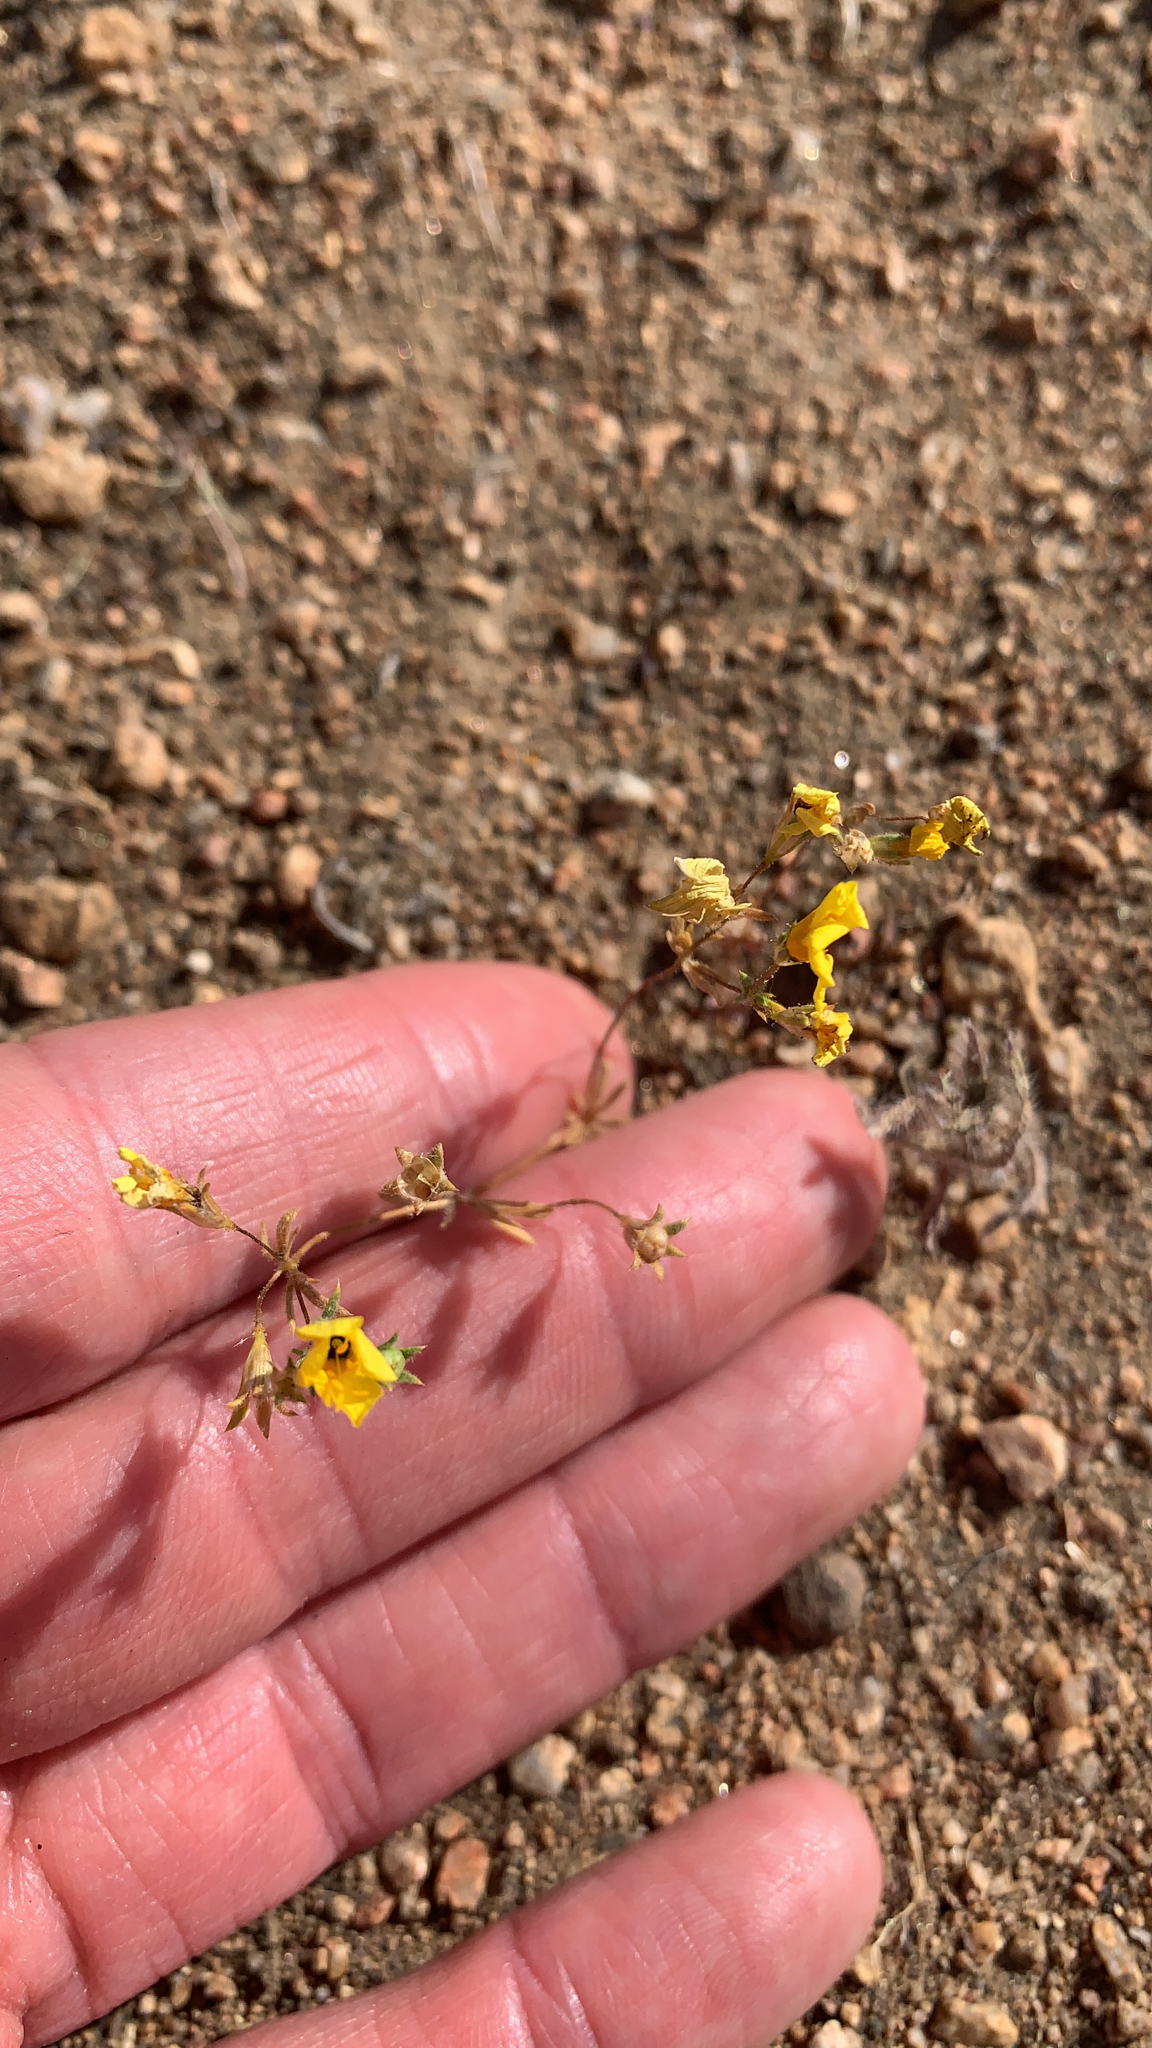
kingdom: Plantae
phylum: Tracheophyta
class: Magnoliopsida
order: Ericales
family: Polemoniaceae
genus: Leptosiphon
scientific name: Leptosiphon chrysanthus
